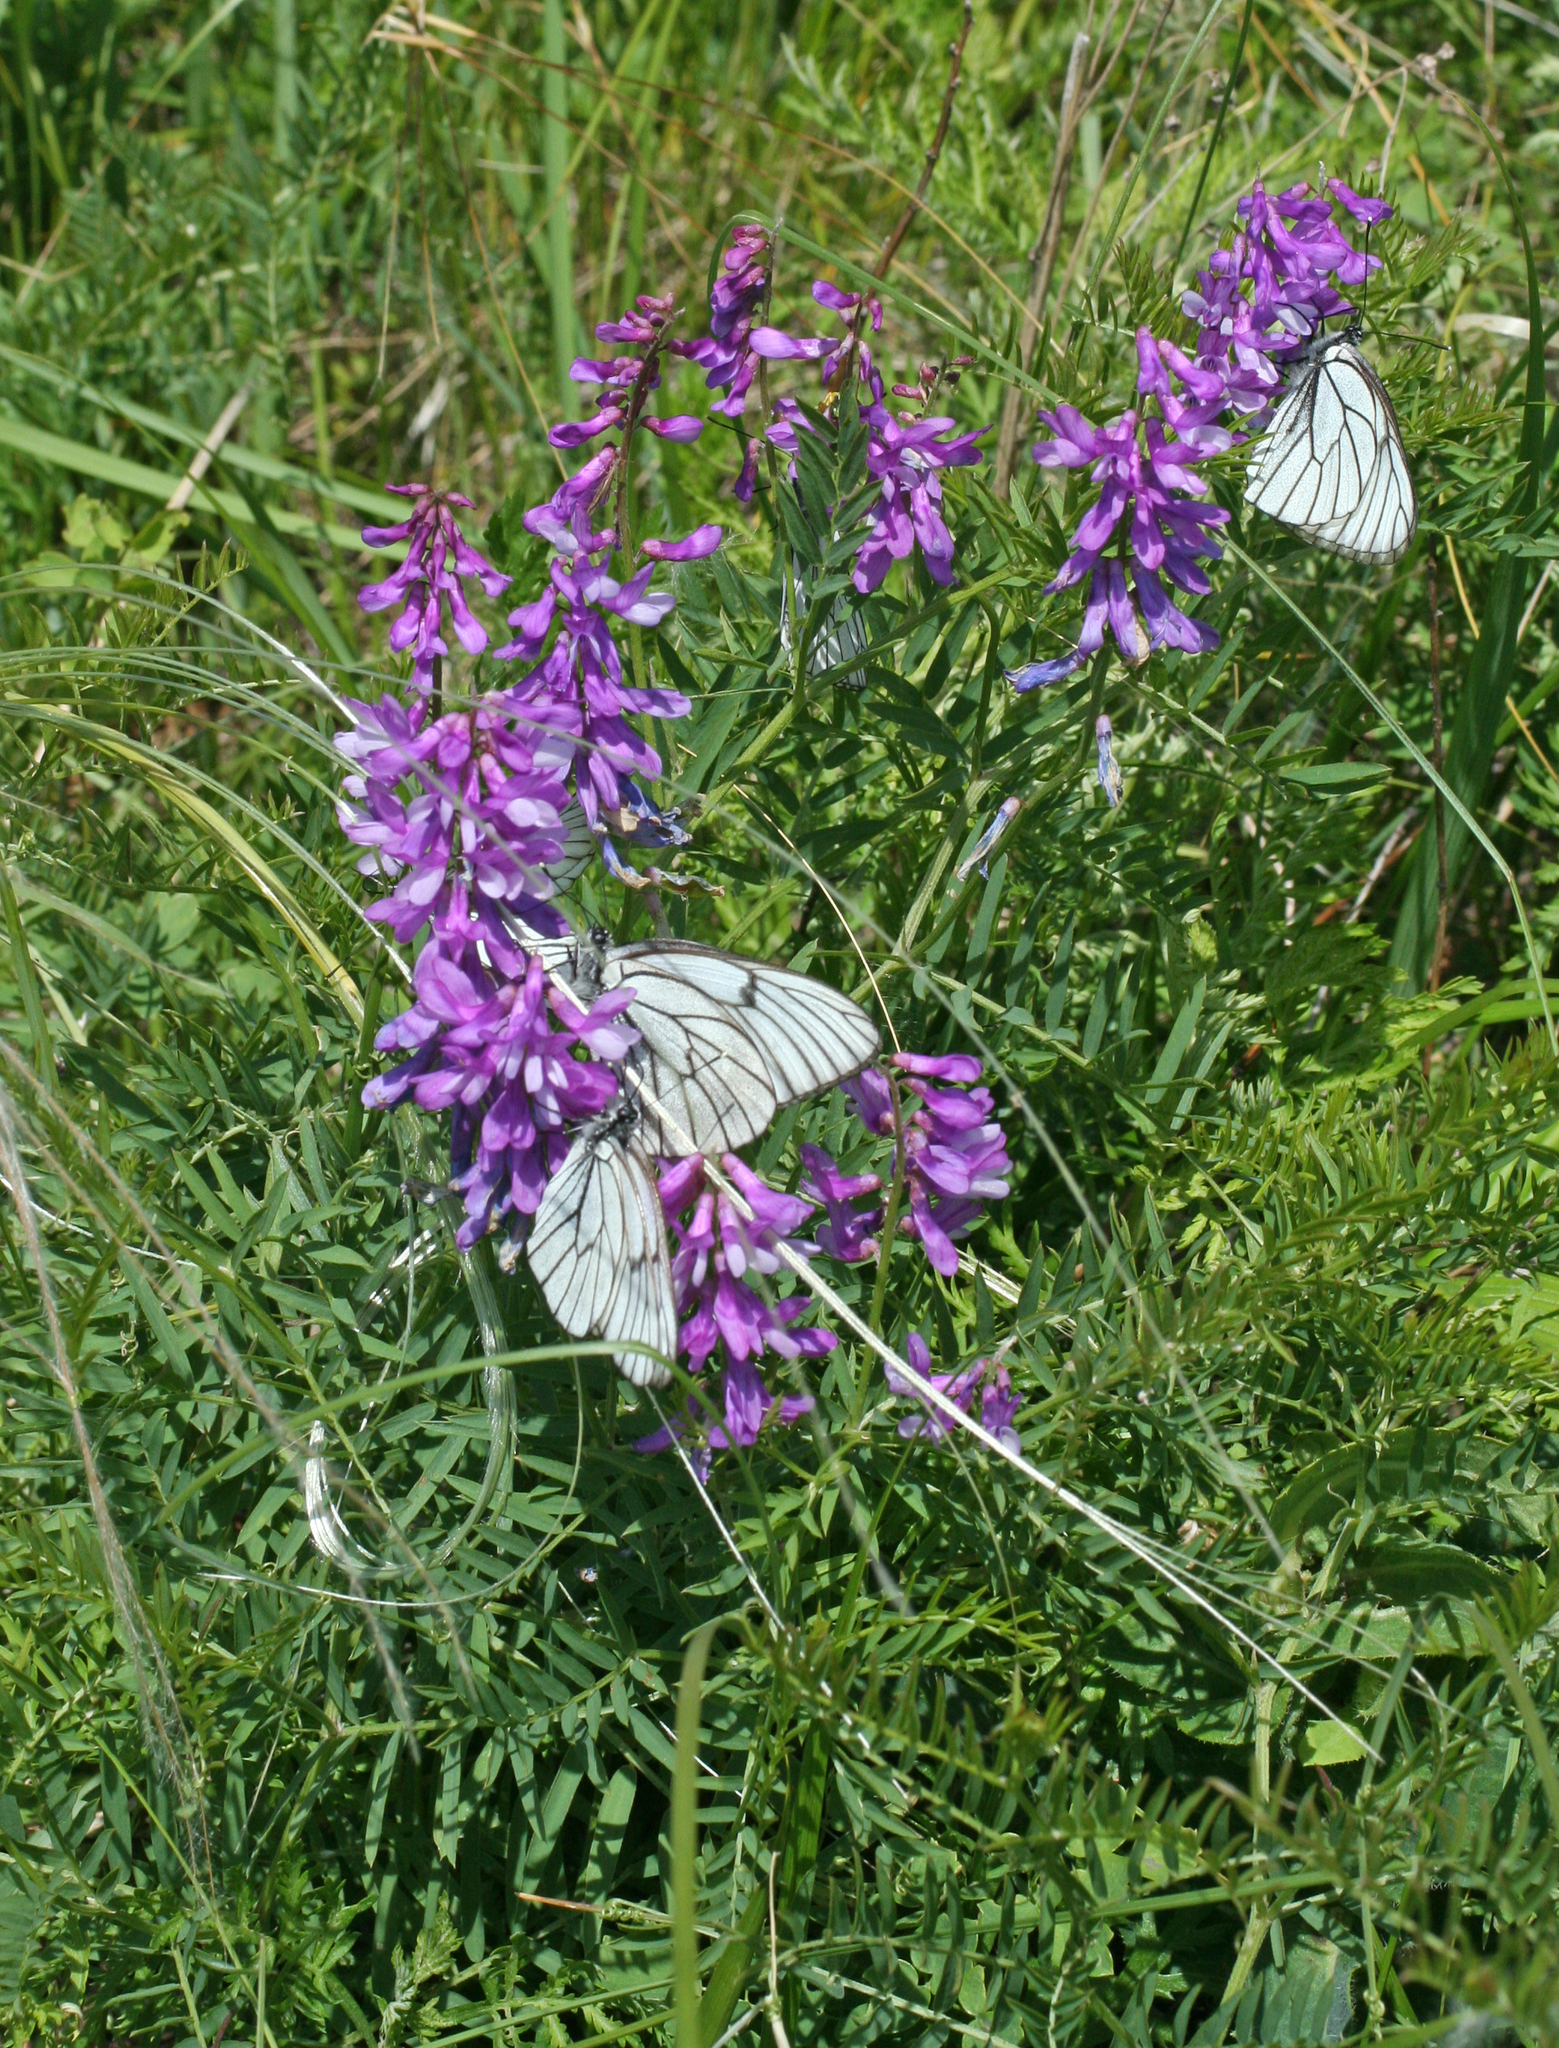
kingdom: Plantae
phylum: Tracheophyta
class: Magnoliopsida
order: Fabales
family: Fabaceae
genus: Vicia
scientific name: Vicia tenuifolia
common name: Fine-leaved vetch
